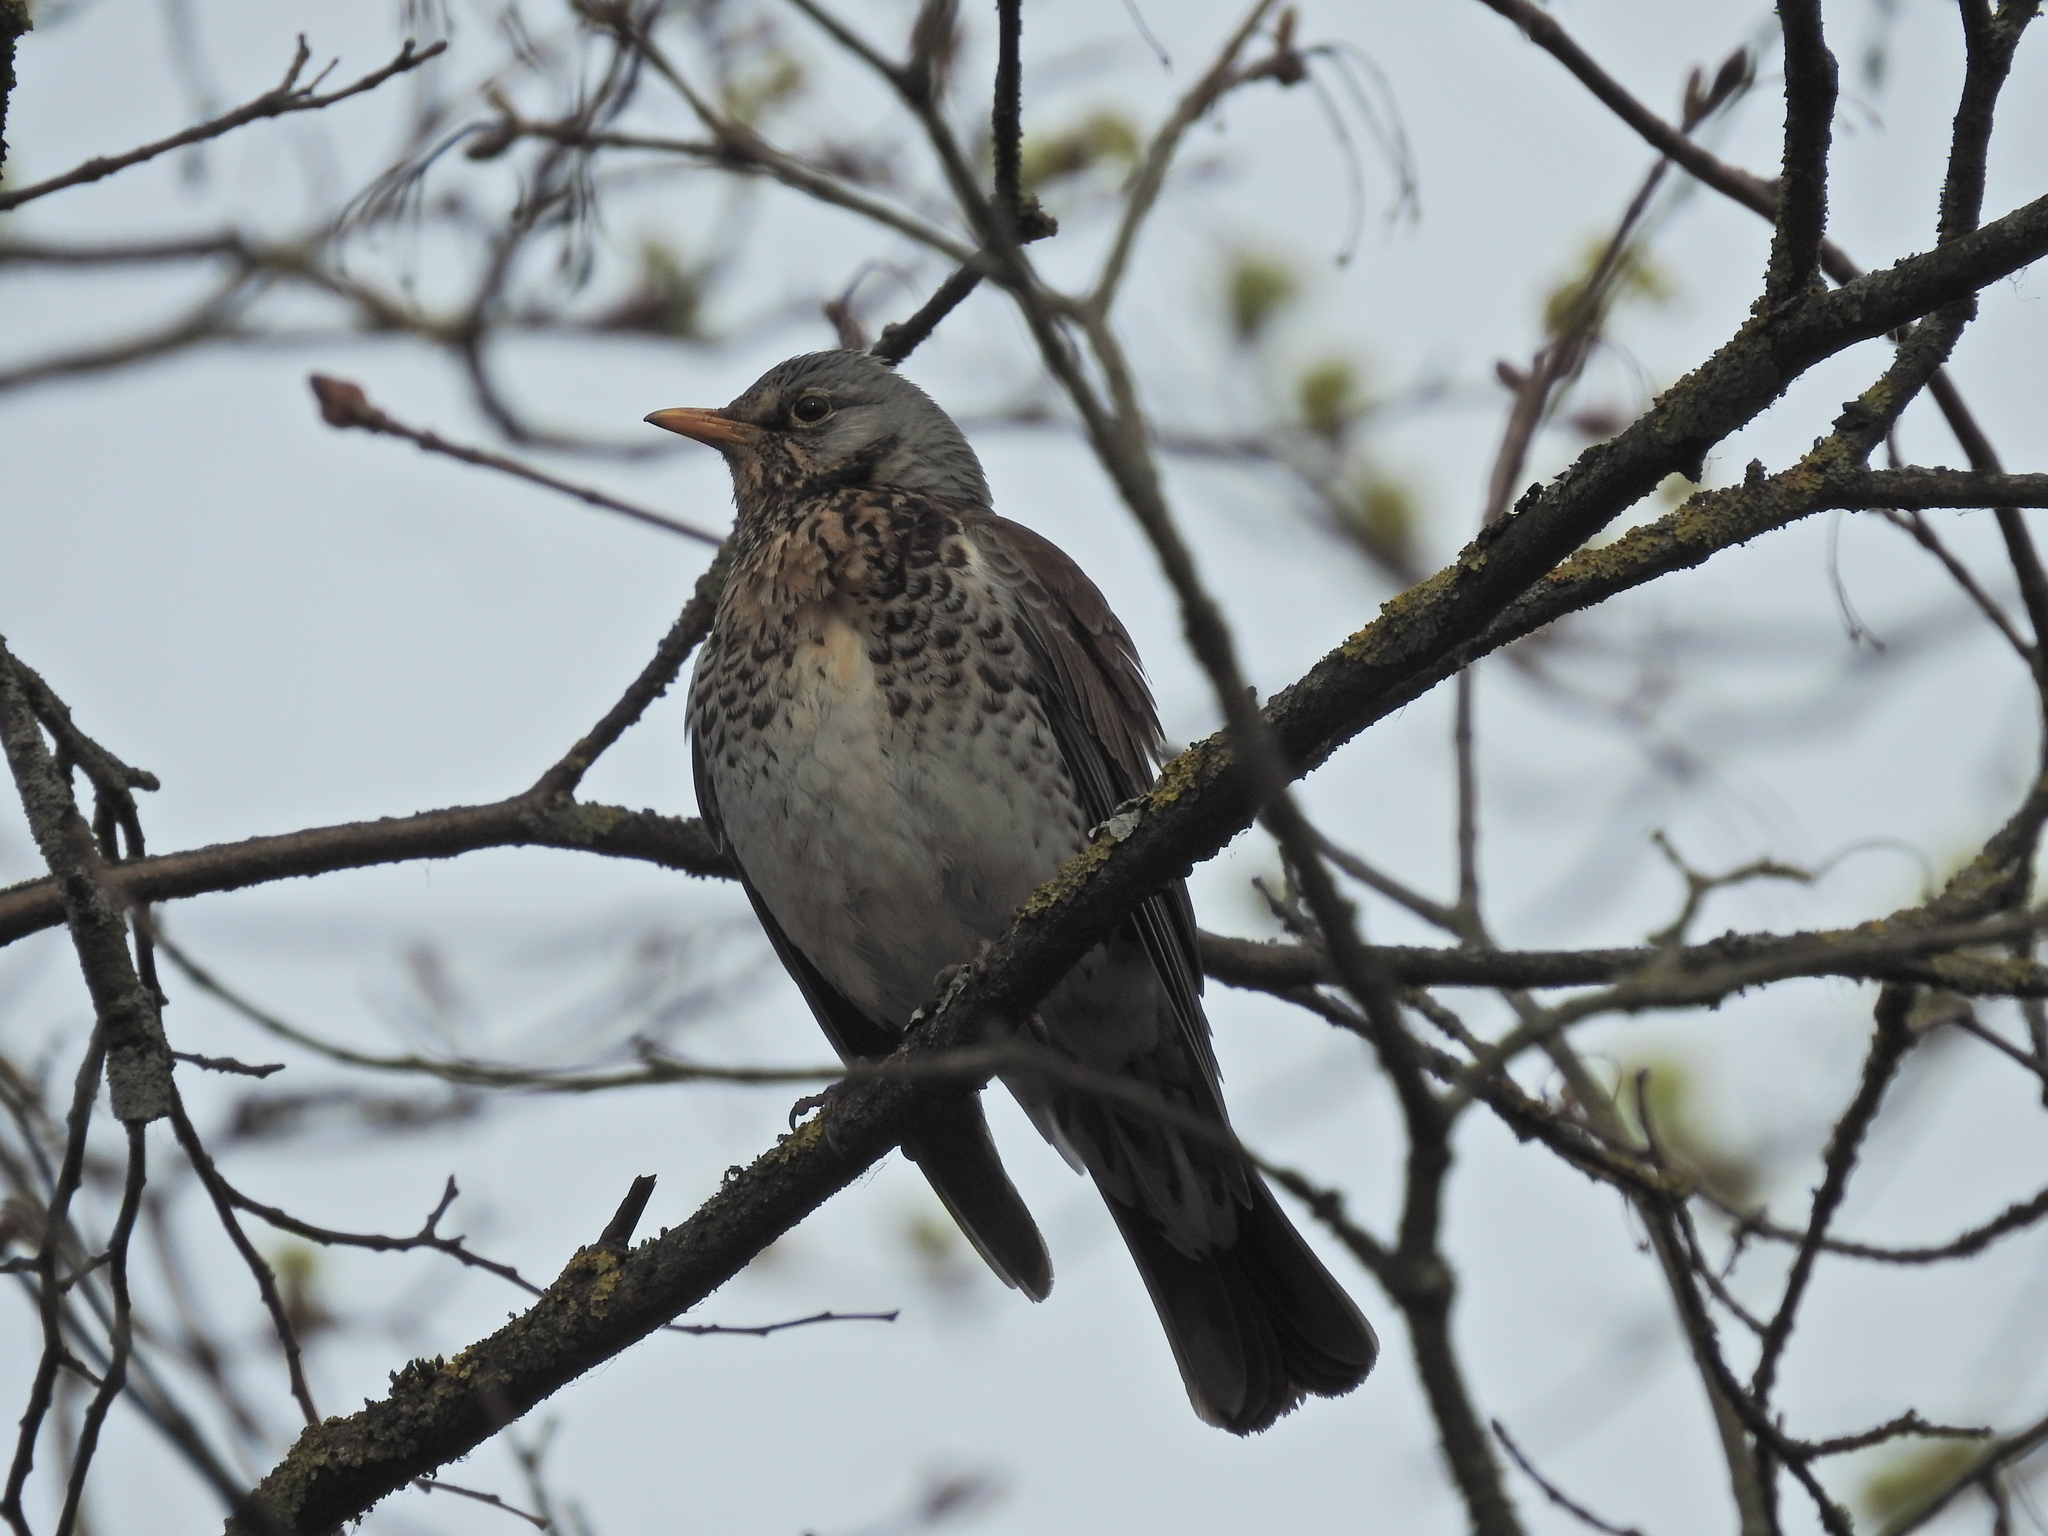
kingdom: Animalia
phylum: Chordata
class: Aves
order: Passeriformes
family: Turdidae
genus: Turdus
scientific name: Turdus pilaris
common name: Fieldfare
